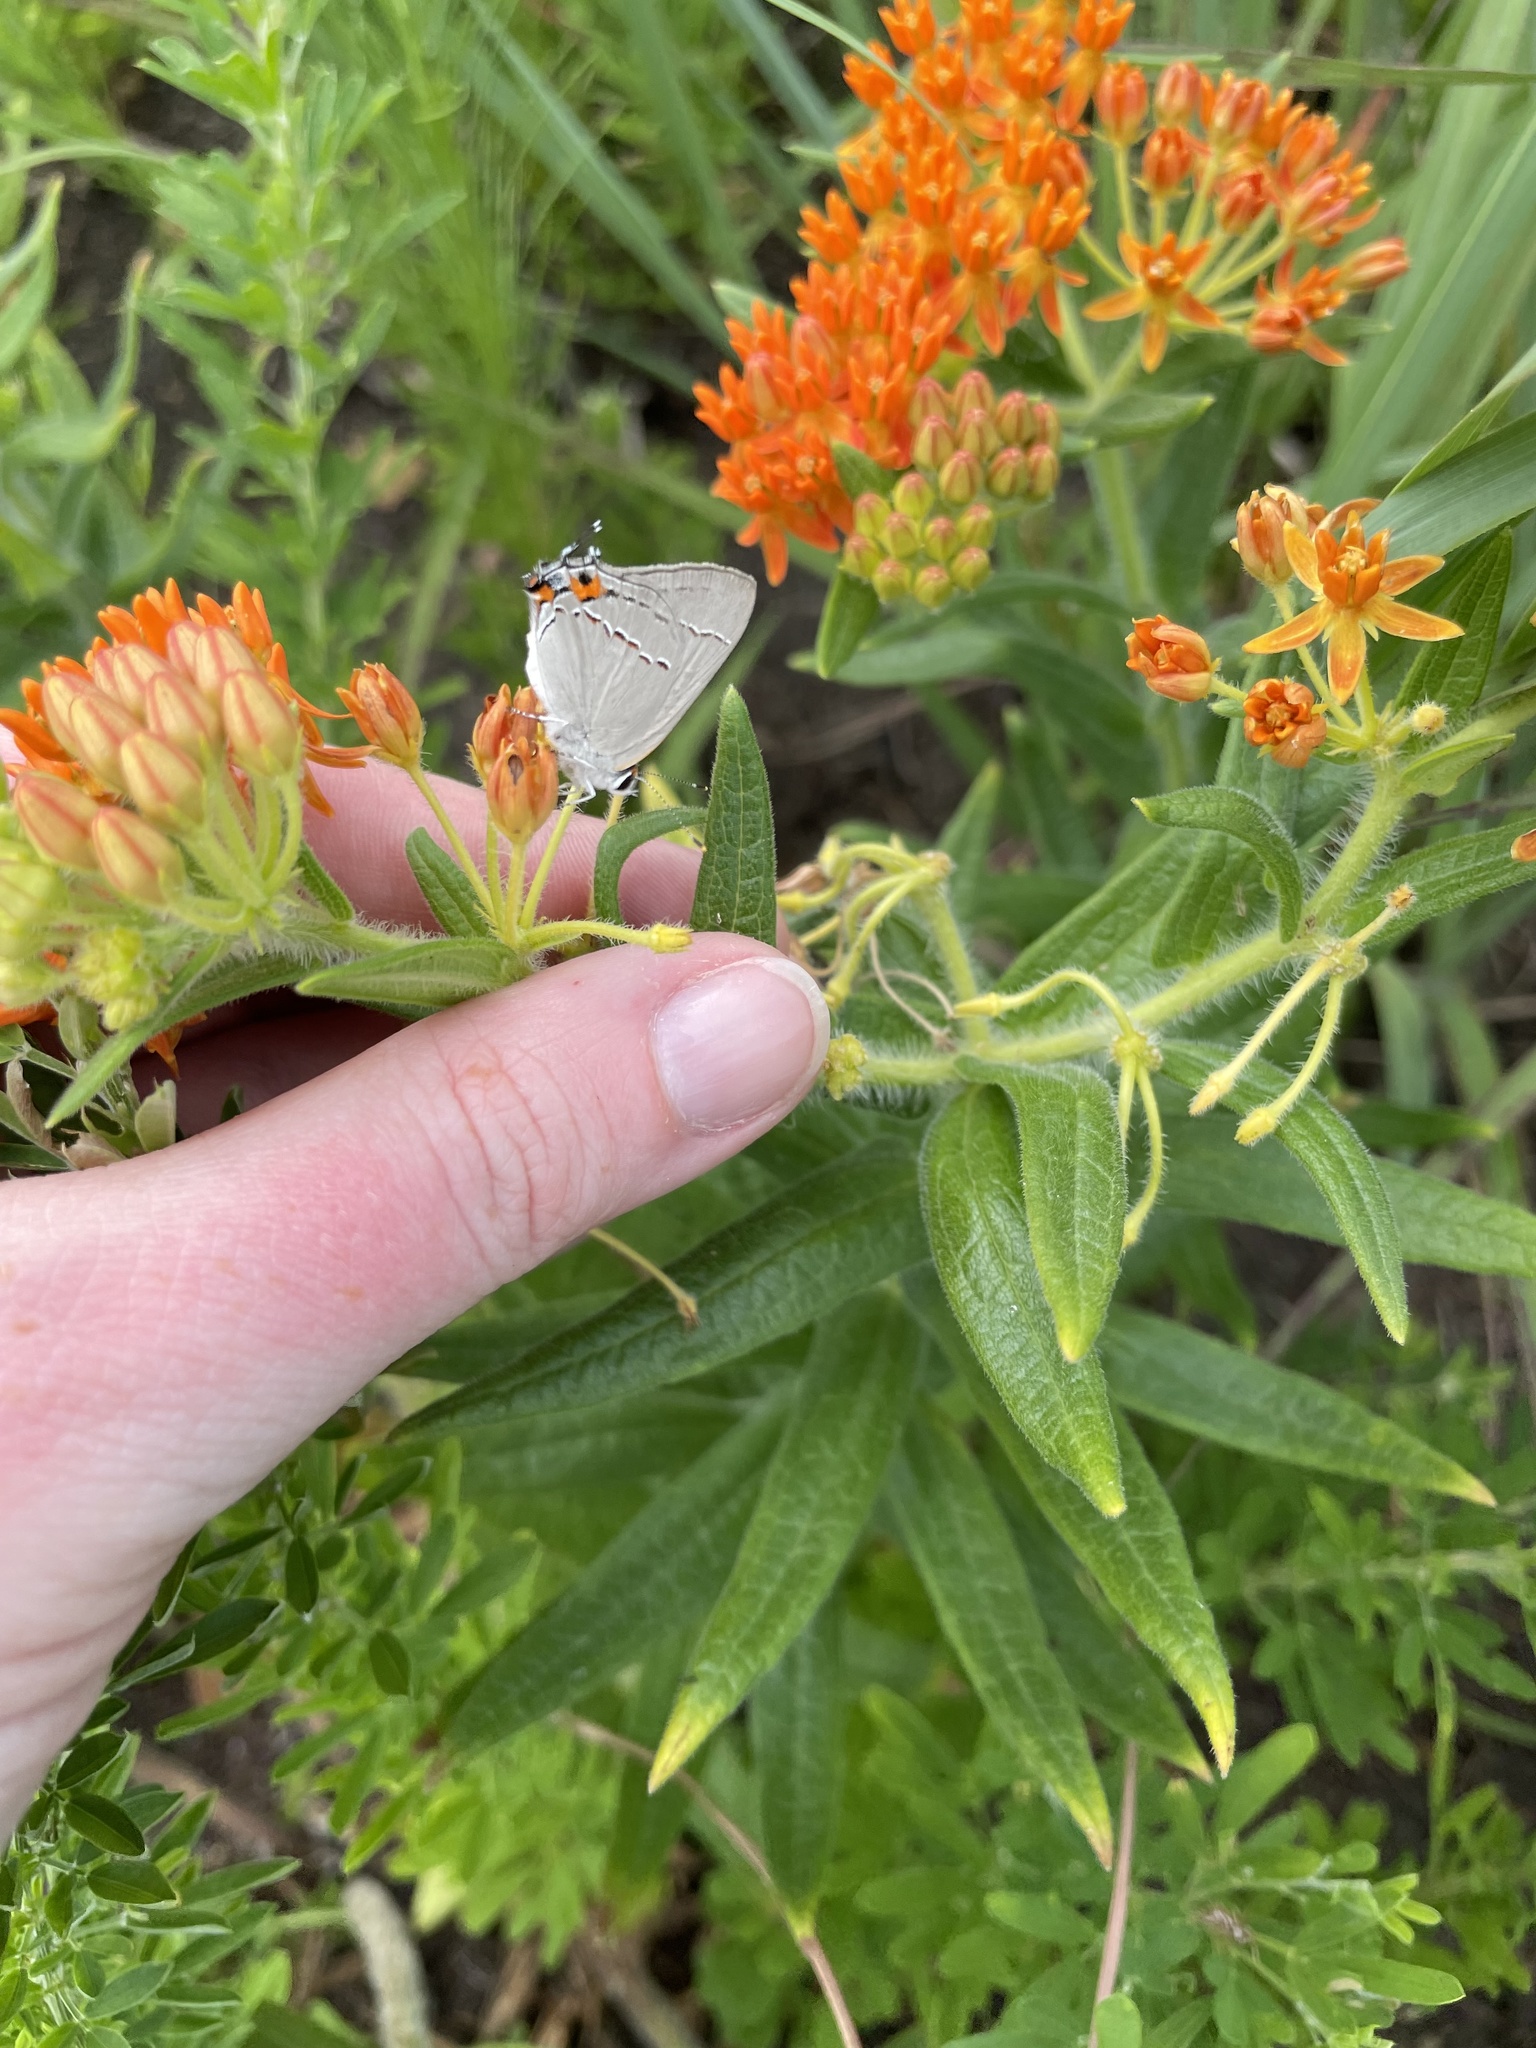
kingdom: Animalia
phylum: Arthropoda
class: Insecta
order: Lepidoptera
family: Lycaenidae
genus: Strymon
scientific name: Strymon melinus
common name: Gray hairstreak
